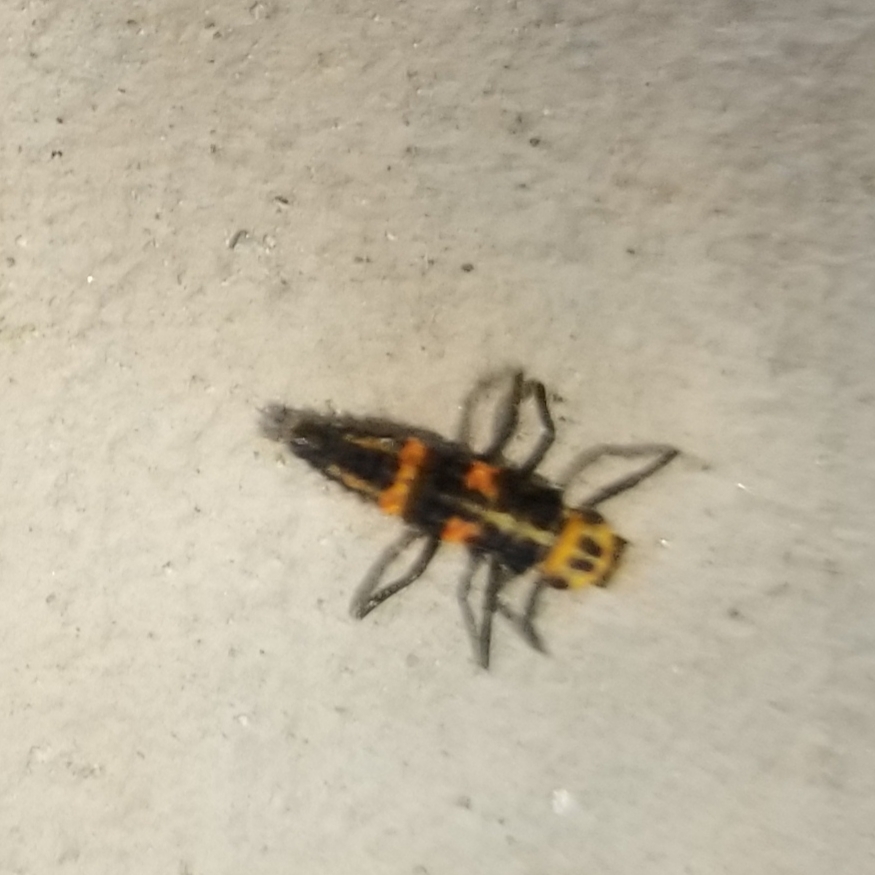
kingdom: Animalia
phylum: Arthropoda
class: Insecta
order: Coleoptera
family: Coccinellidae
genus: Hippodamia
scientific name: Hippodamia convergens
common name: Convergent lady beetle
